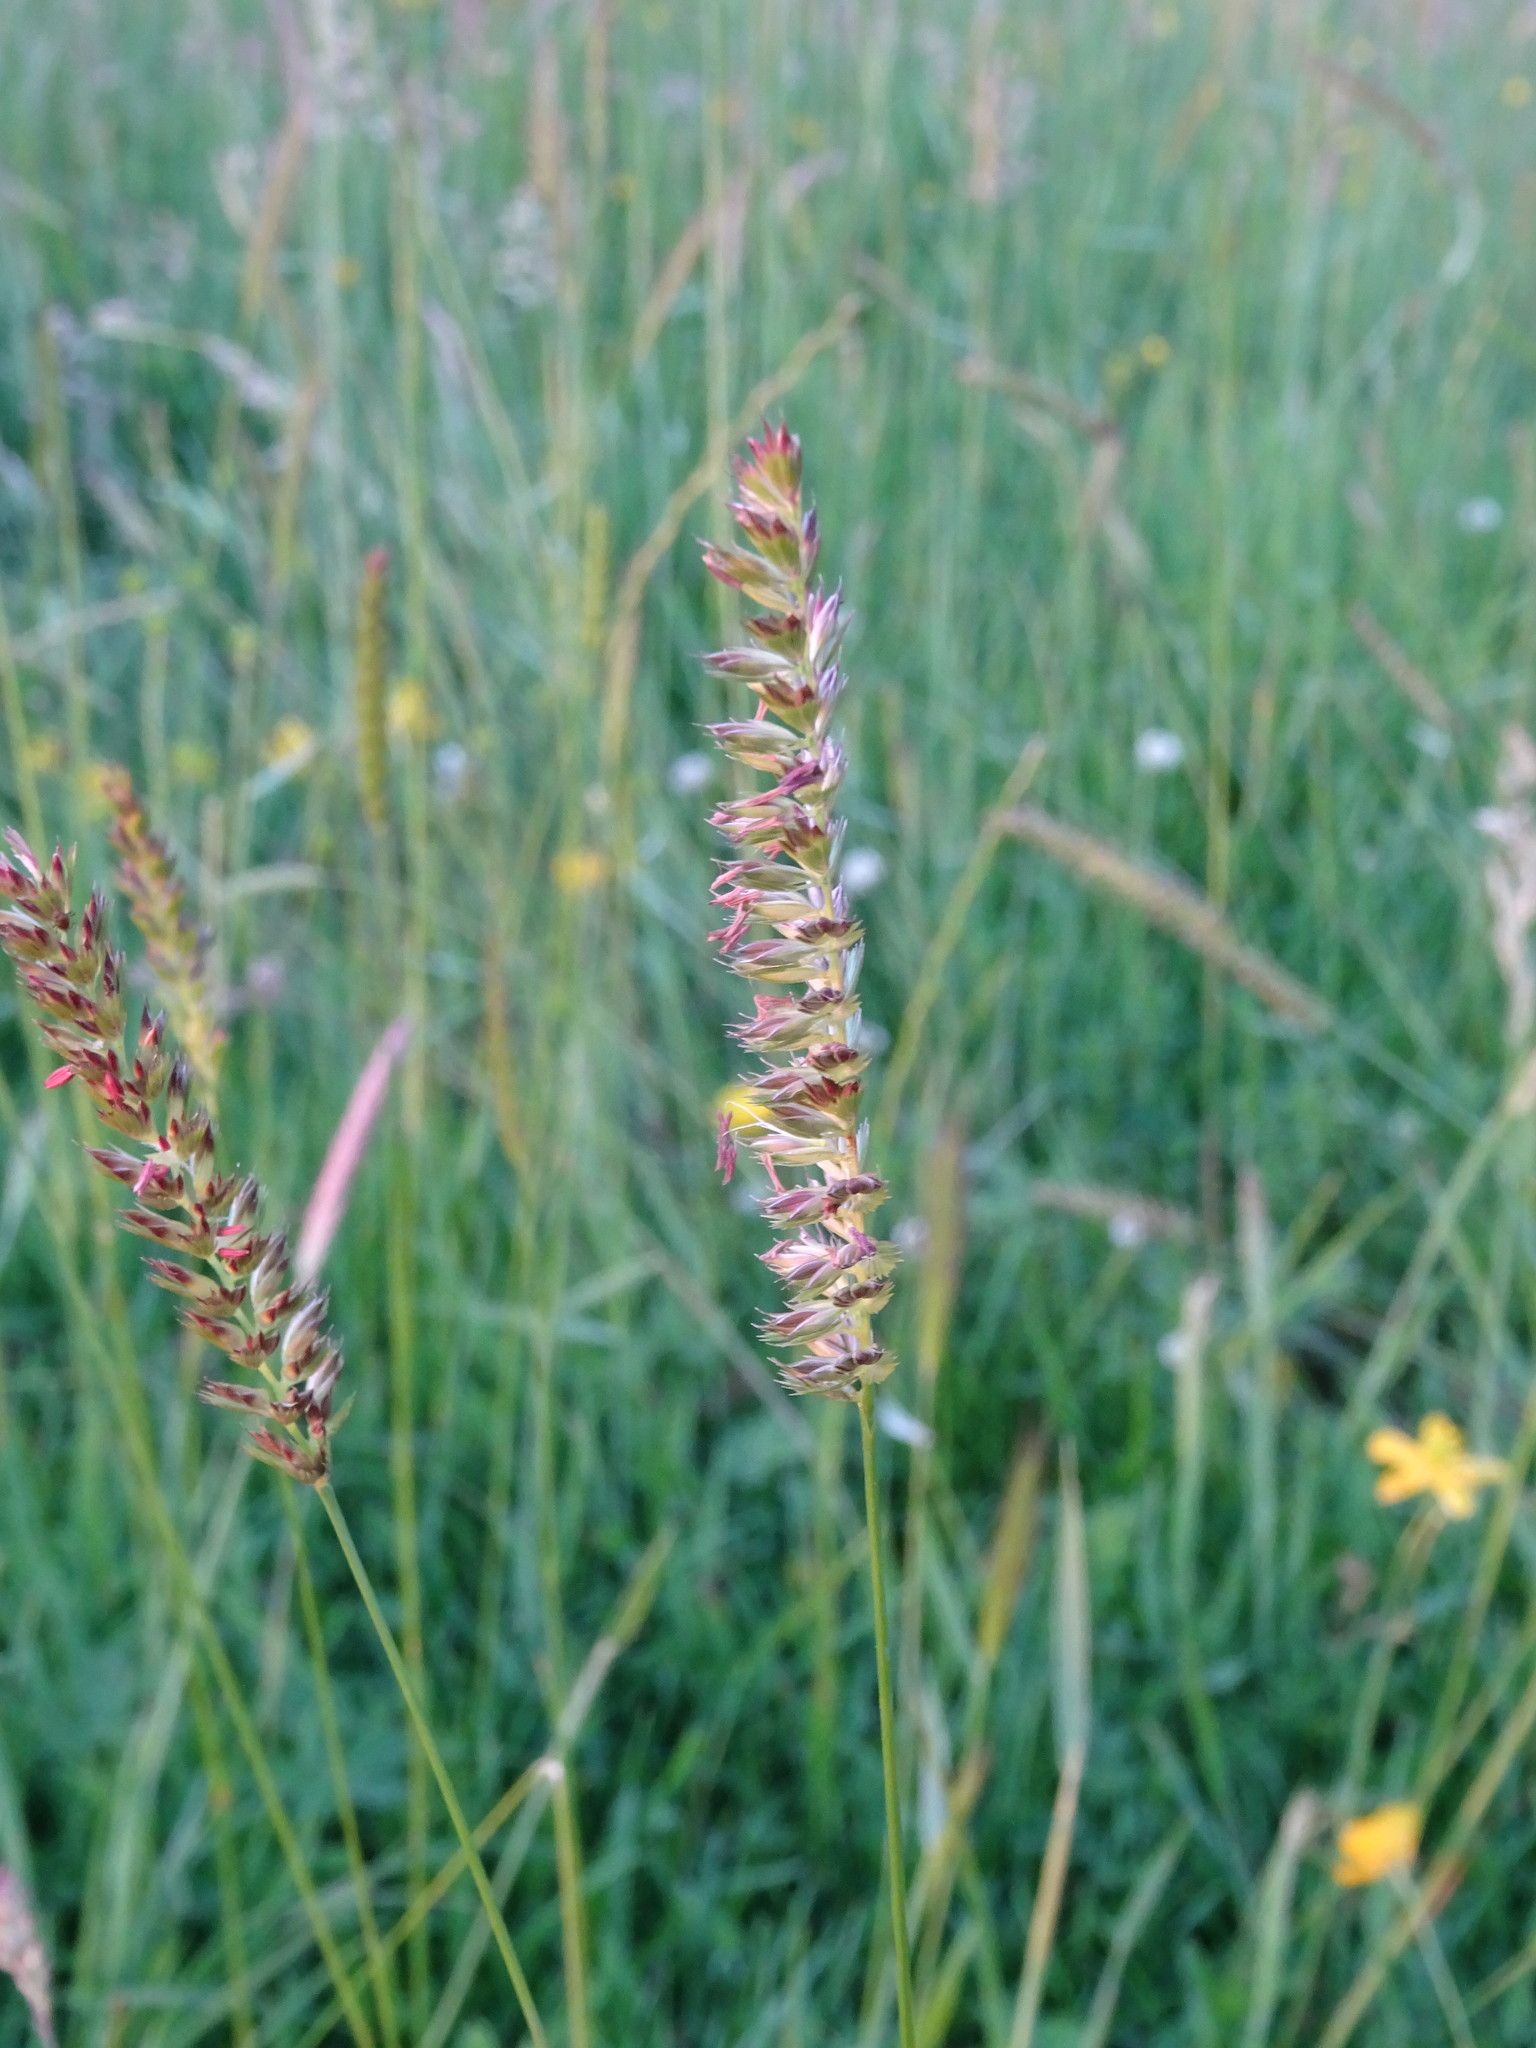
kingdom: Plantae
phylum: Tracheophyta
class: Liliopsida
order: Poales
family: Poaceae
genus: Cynosurus
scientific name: Cynosurus cristatus
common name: Crested dog's-tail
